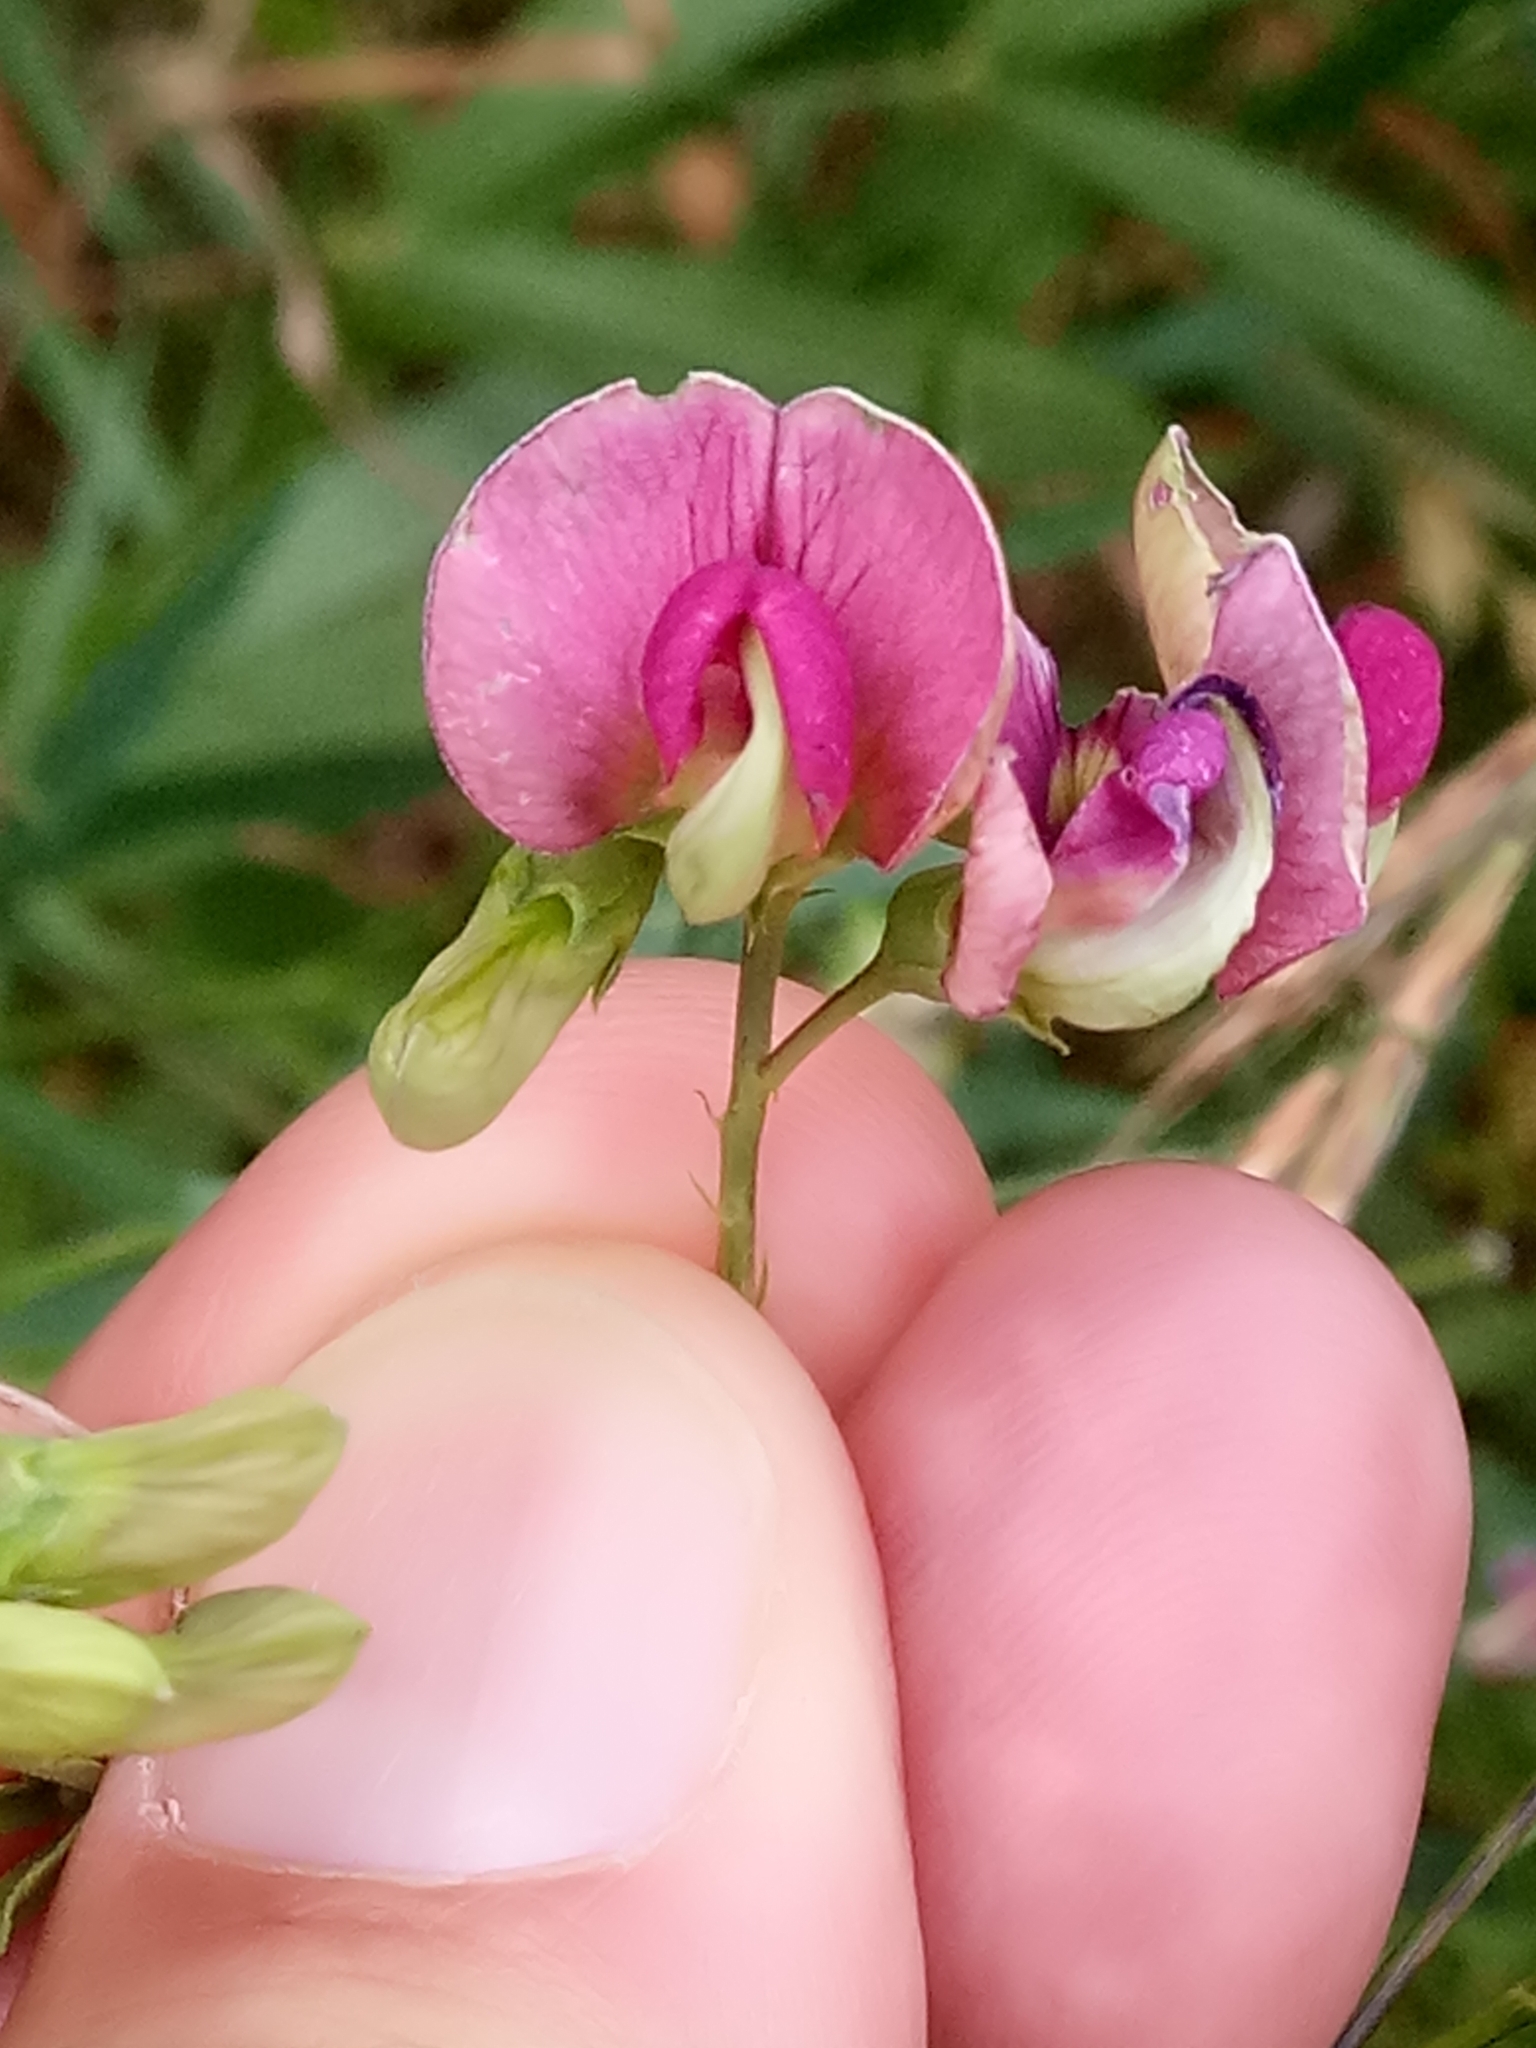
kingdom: Plantae
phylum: Tracheophyta
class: Magnoliopsida
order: Fabales
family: Fabaceae
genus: Lathyrus
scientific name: Lathyrus sylvestris
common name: Flat pea
